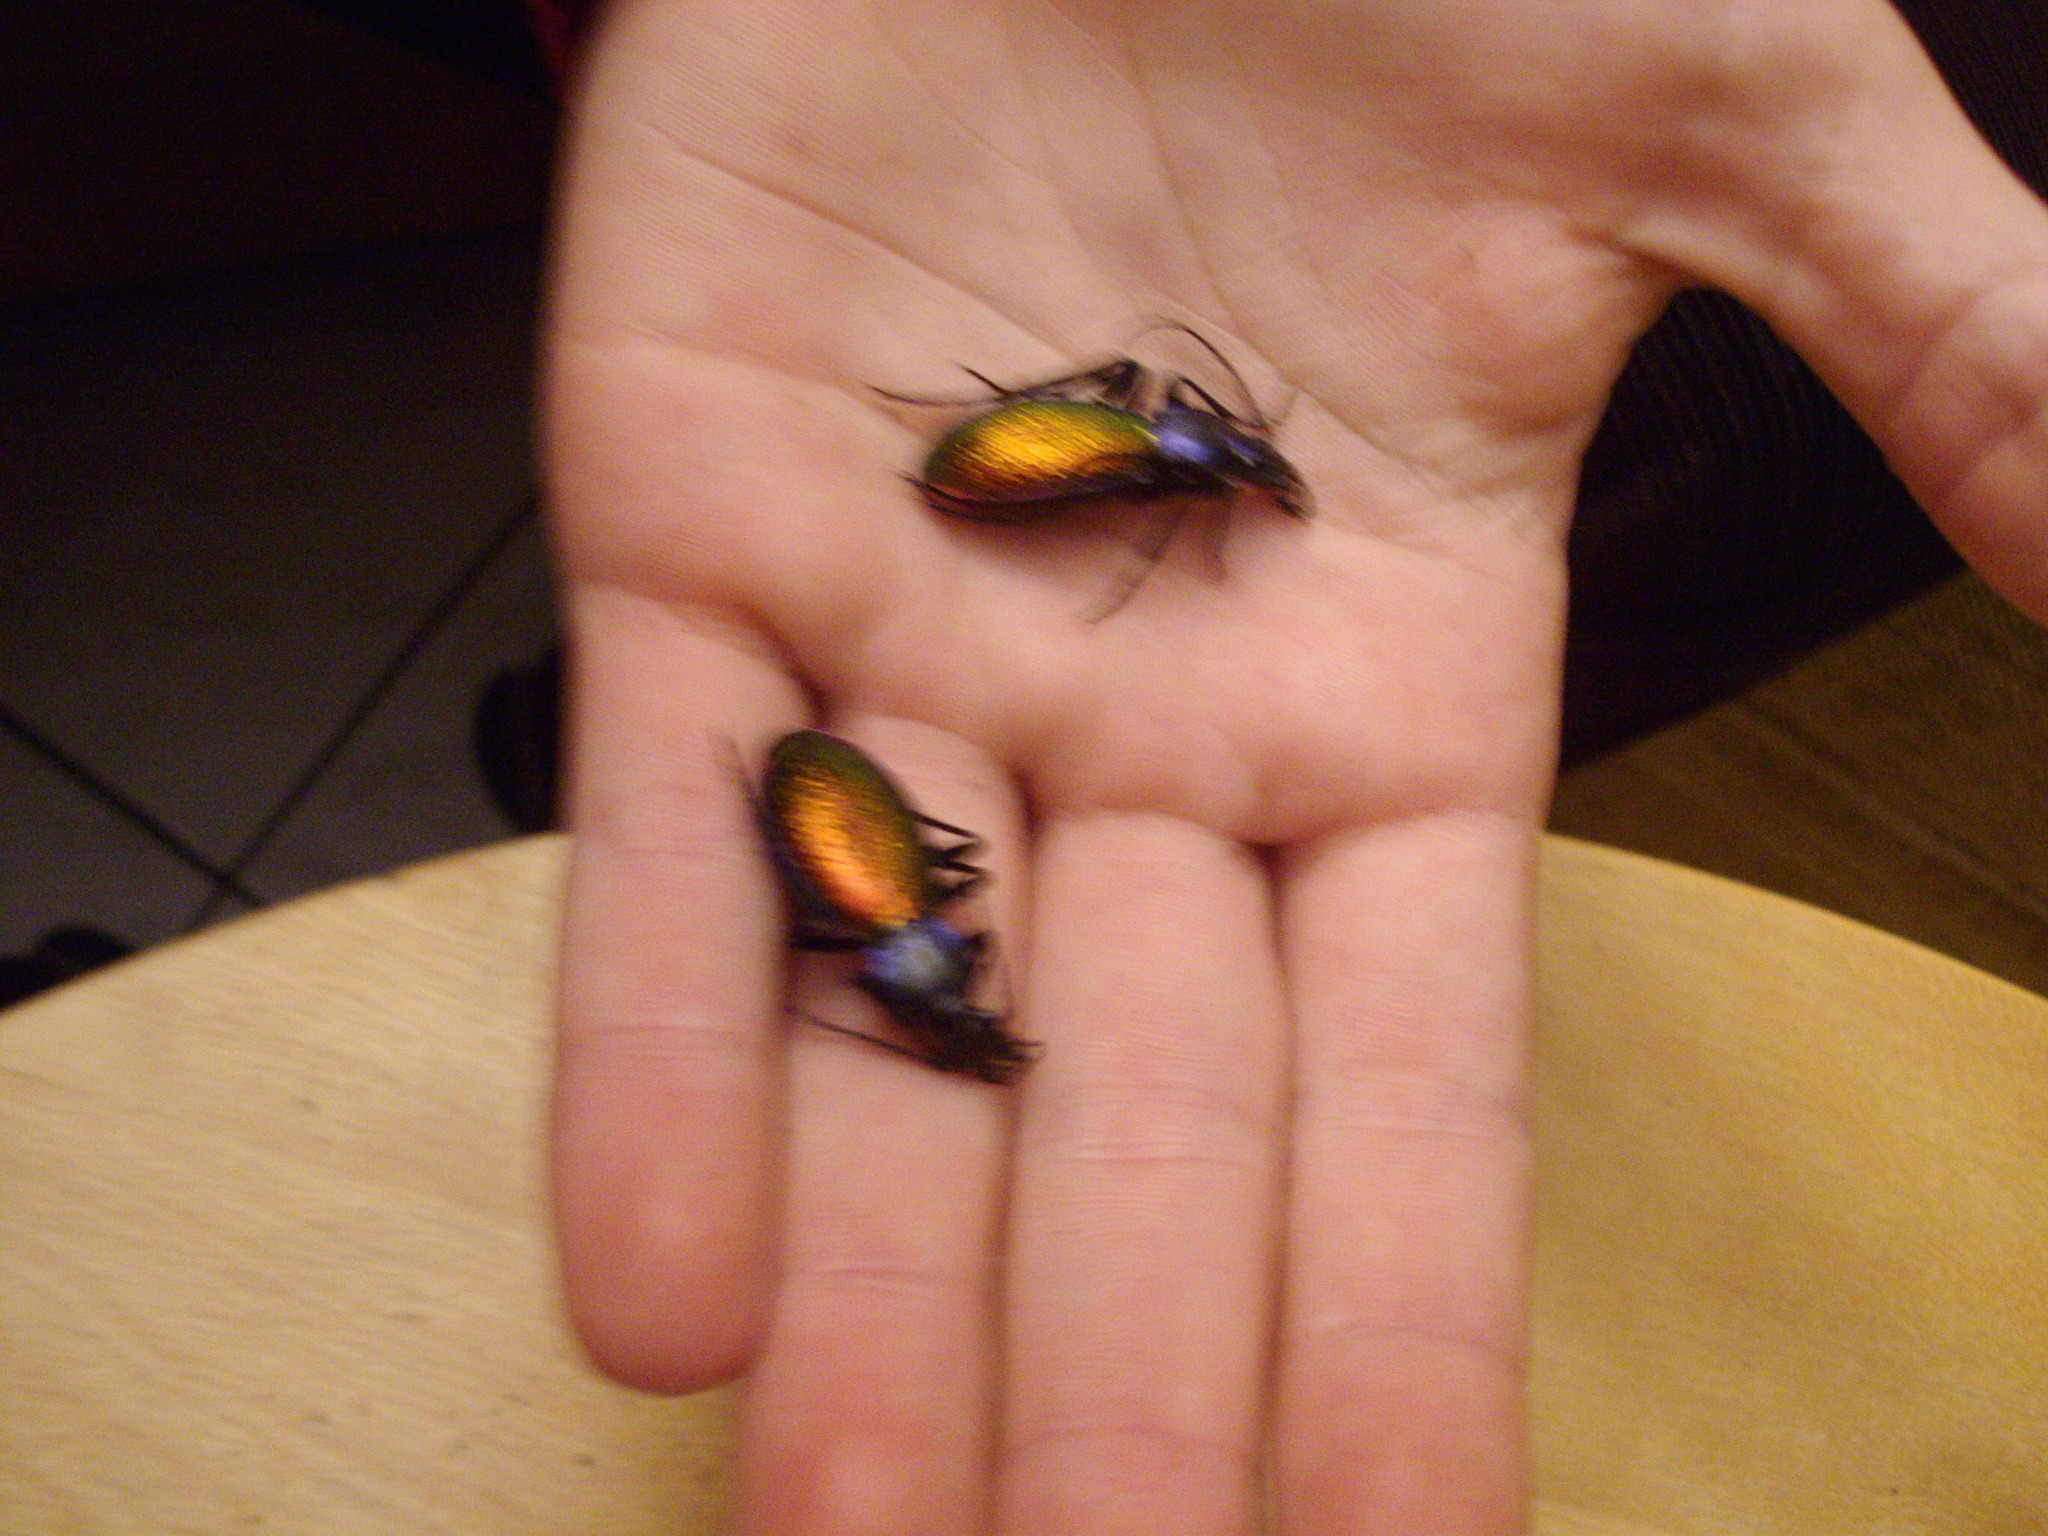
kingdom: Animalia
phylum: Arthropoda
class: Insecta
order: Coleoptera
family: Carabidae
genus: Carabus
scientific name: Carabus hispanus
